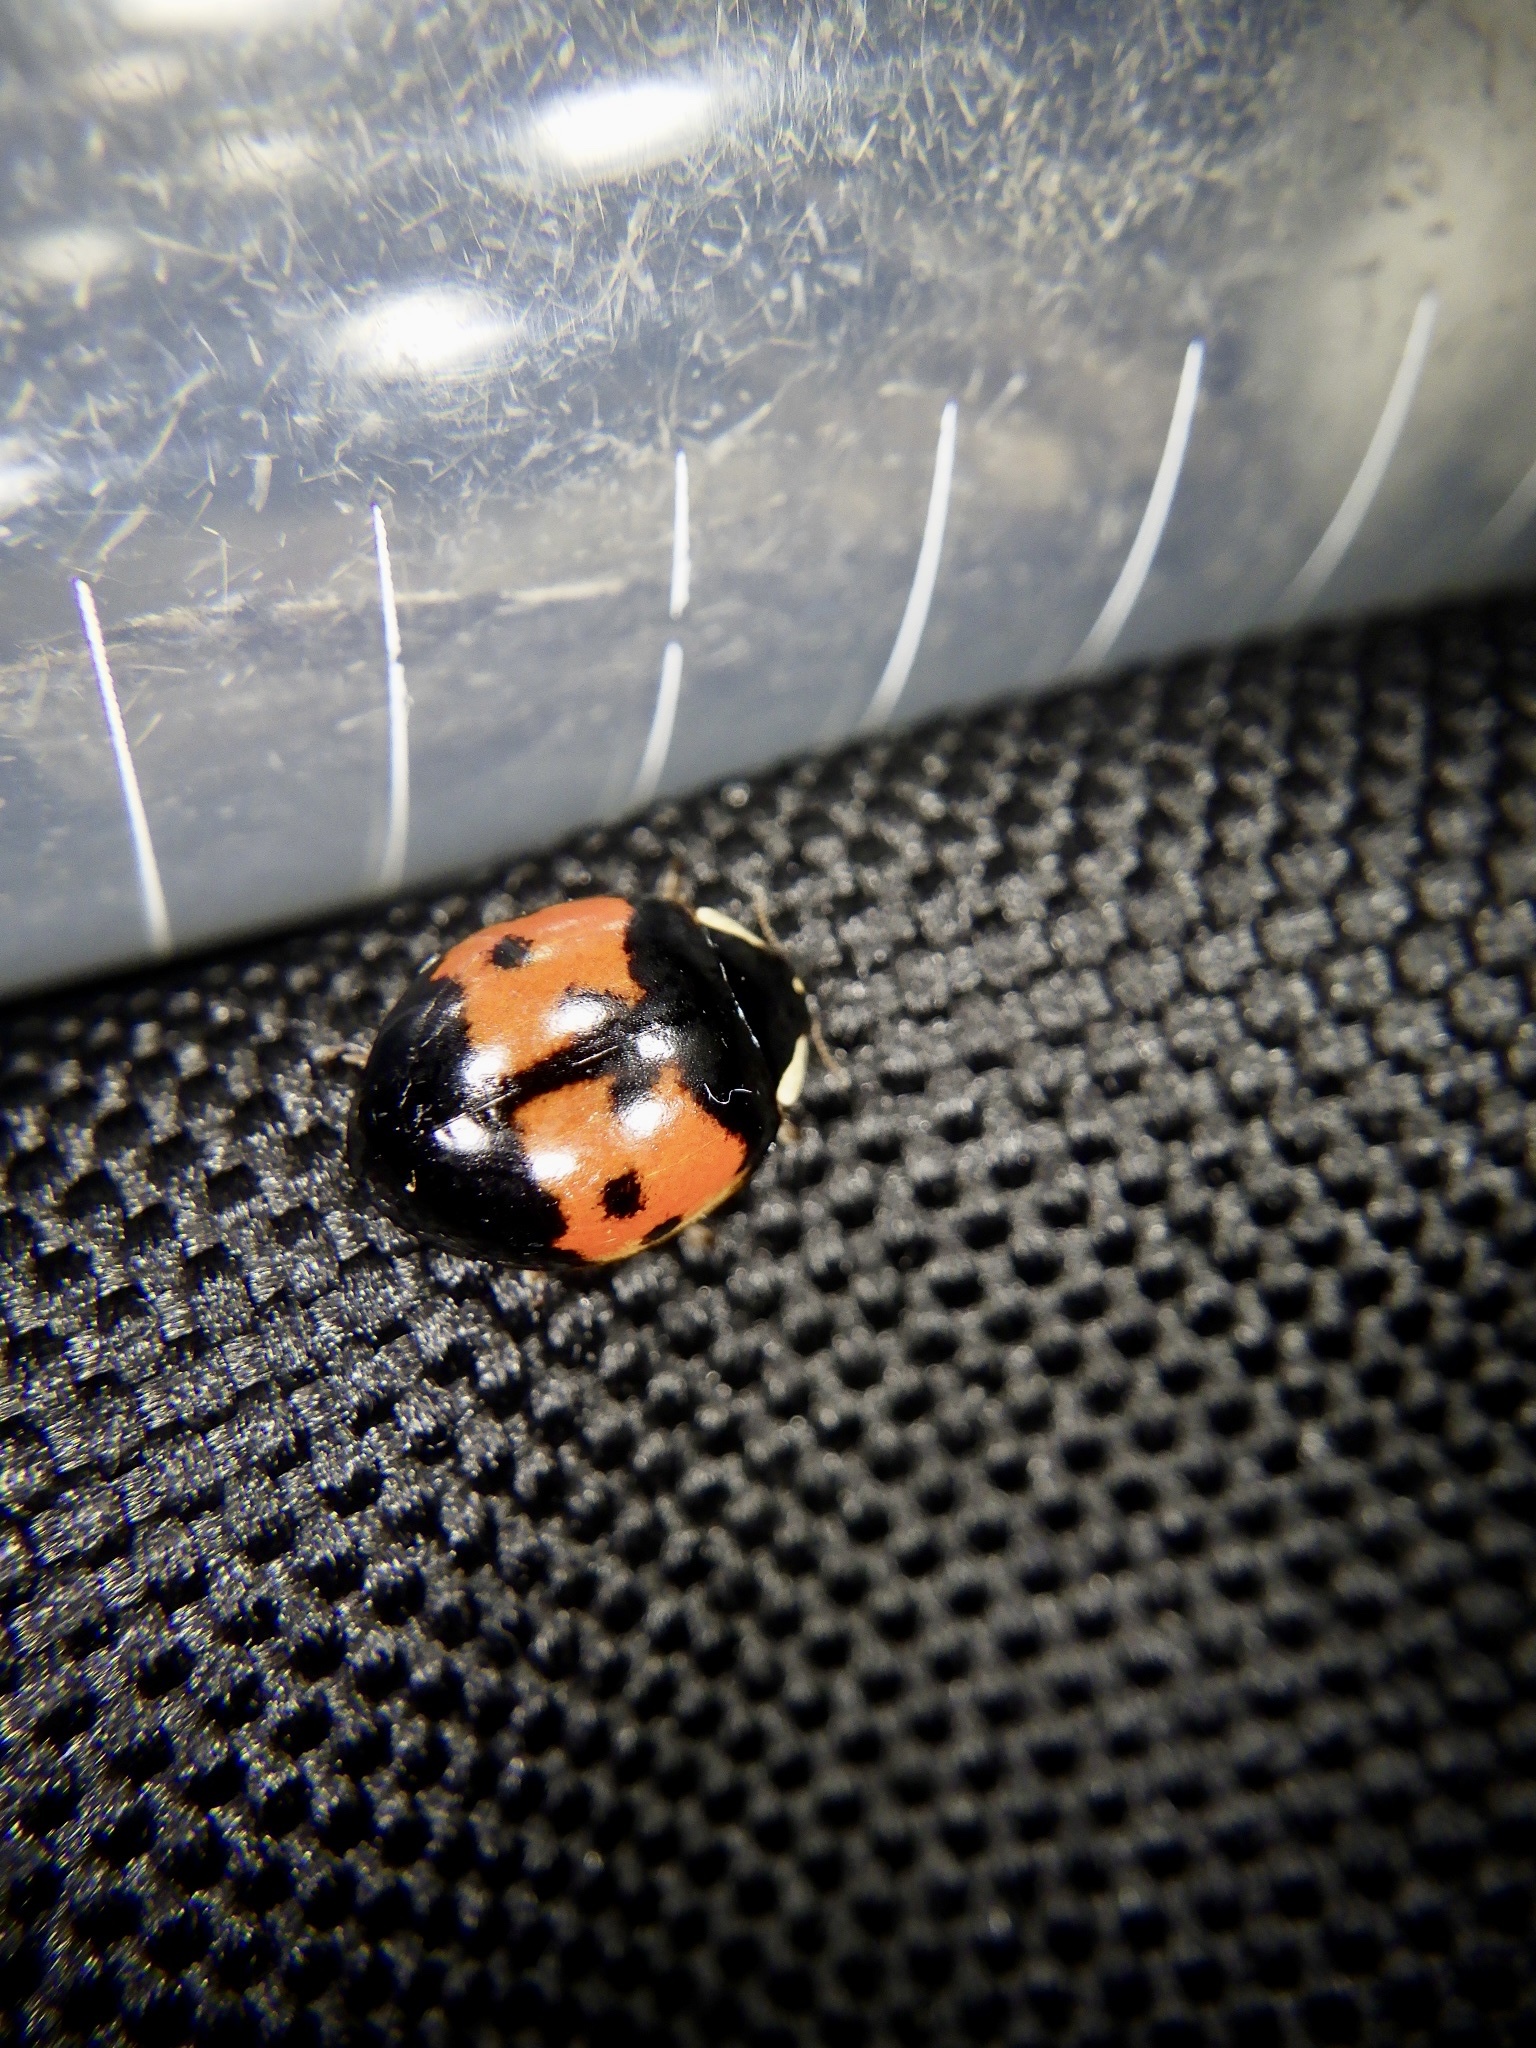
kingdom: Animalia
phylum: Arthropoda
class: Insecta
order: Coleoptera
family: Coccinellidae
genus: Harmonia
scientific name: Harmonia axyridis
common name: Harlequin ladybird
